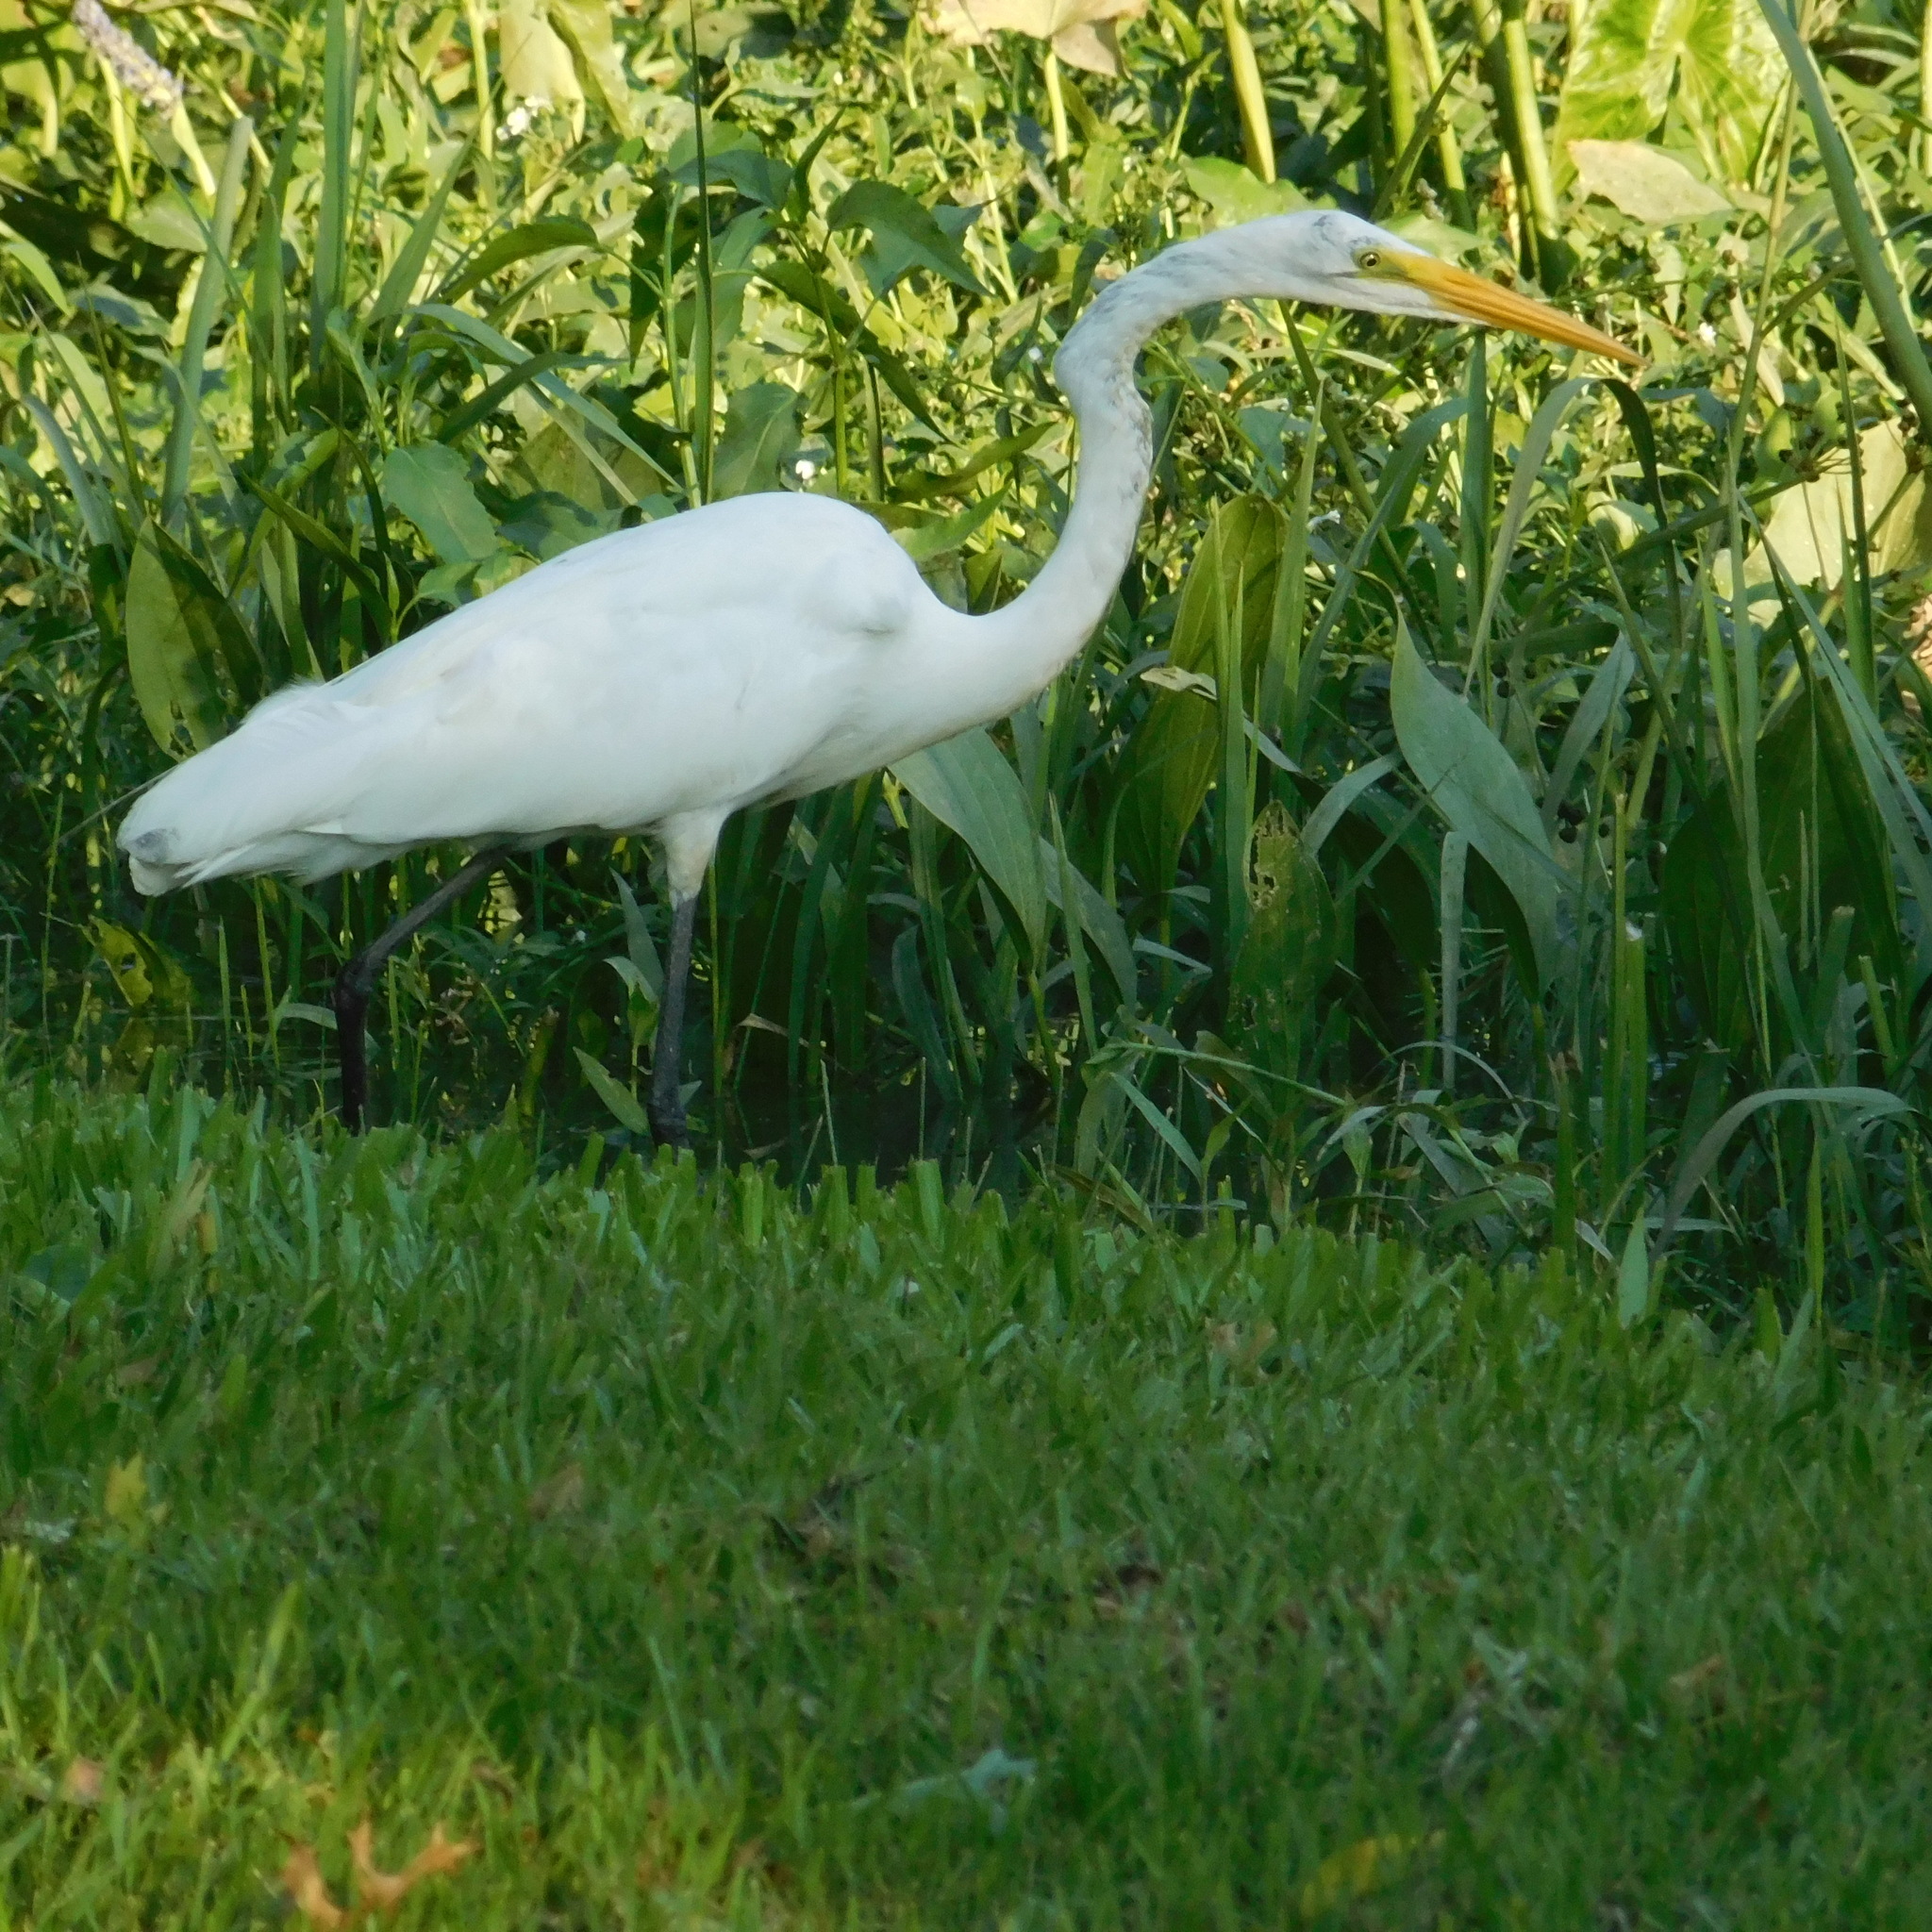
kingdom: Animalia
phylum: Chordata
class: Aves
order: Pelecaniformes
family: Ardeidae
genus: Ardea
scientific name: Ardea alba
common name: Great egret
